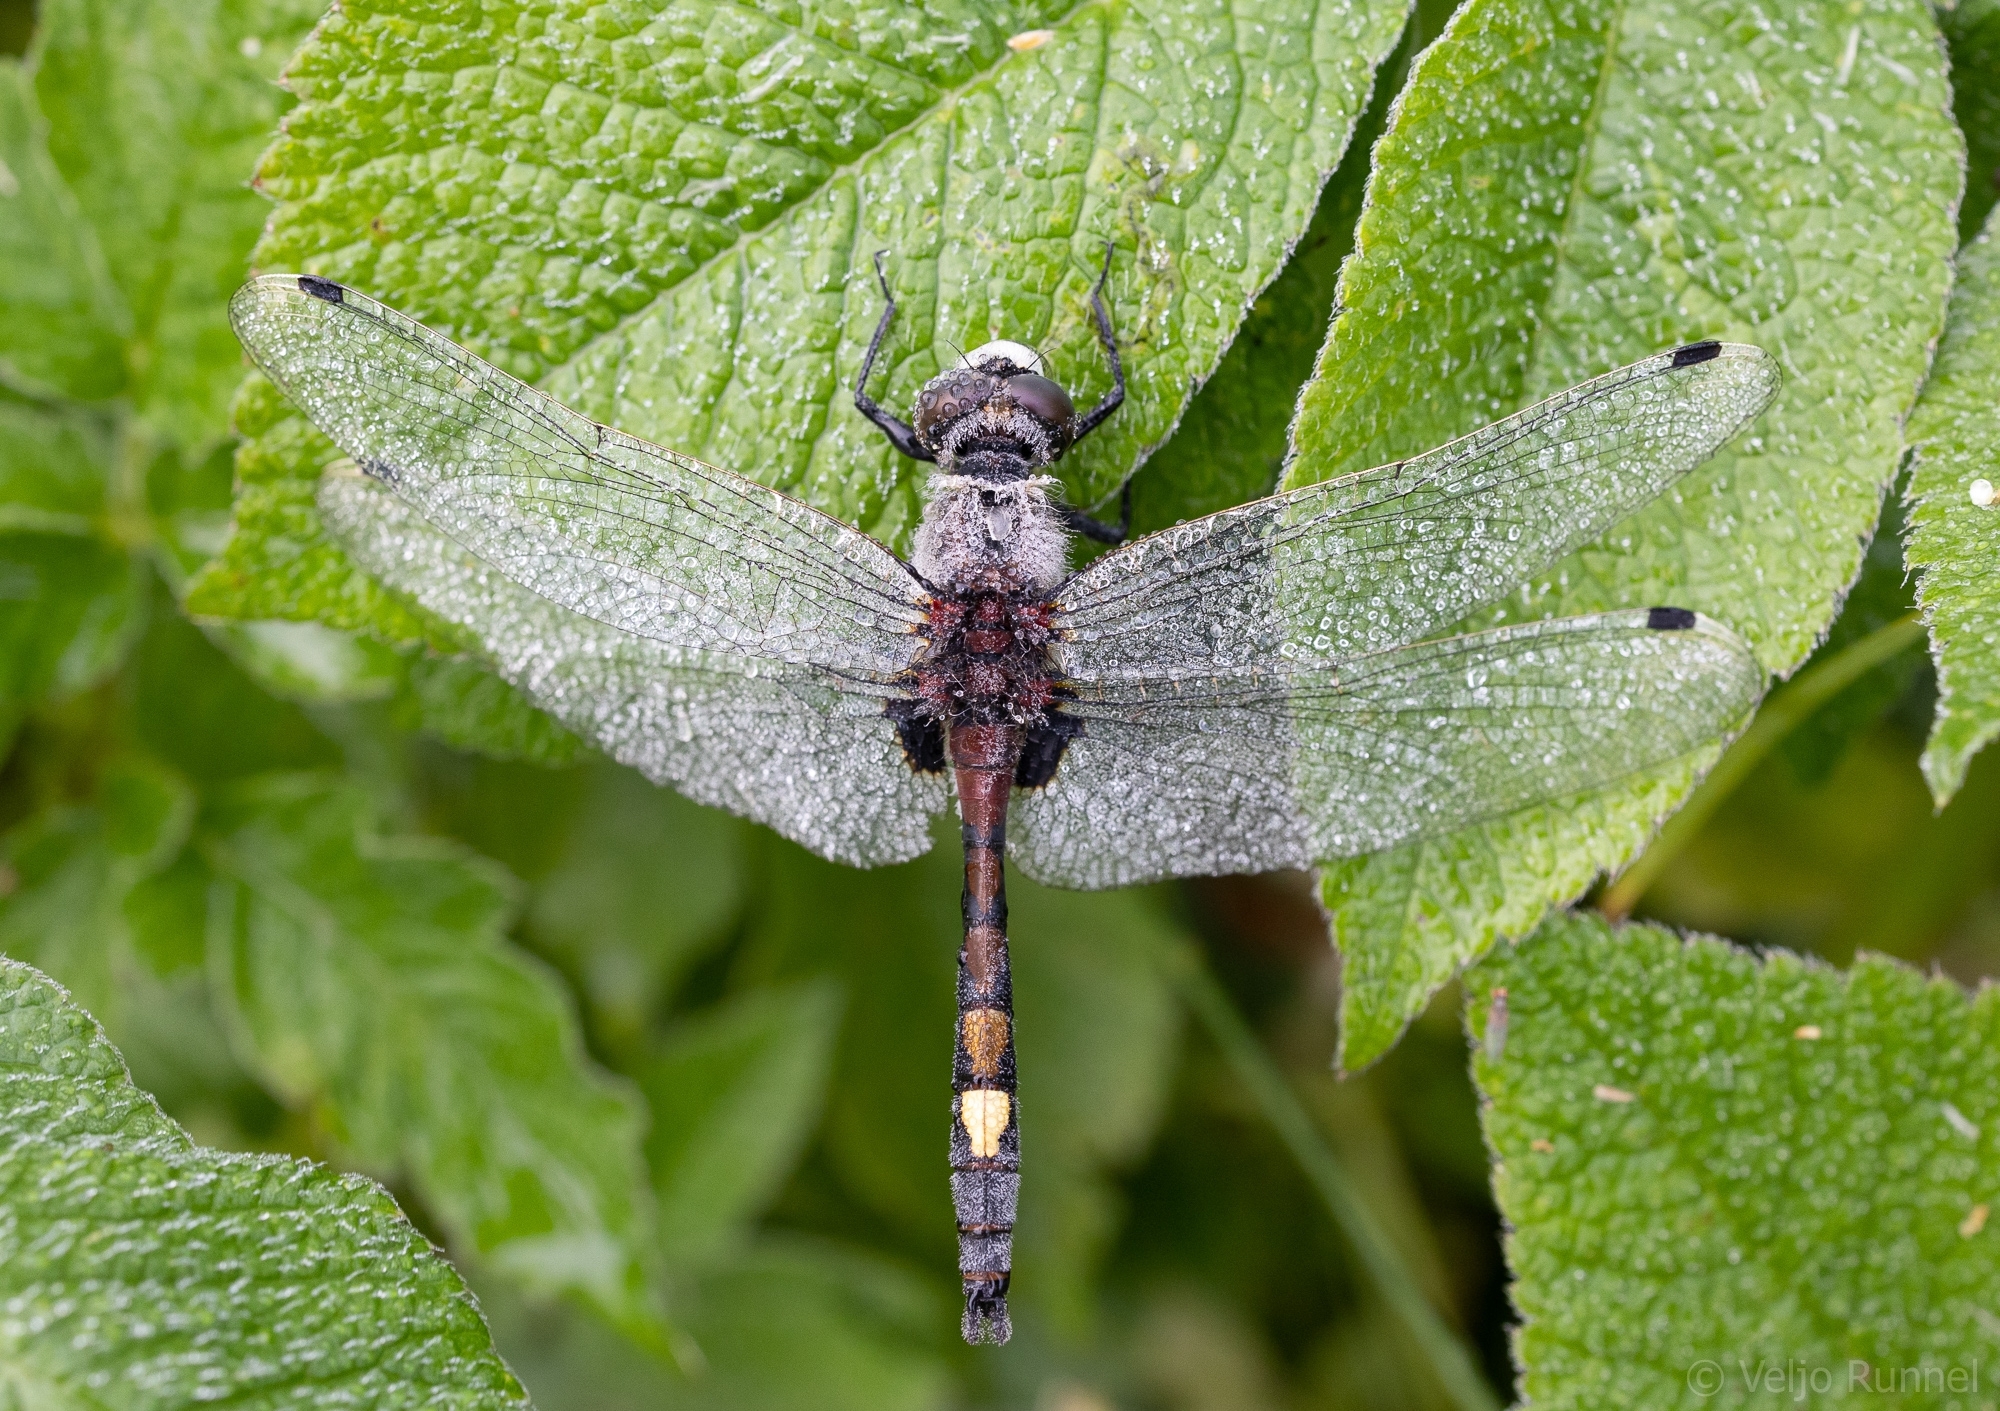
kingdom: Animalia
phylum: Arthropoda
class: Insecta
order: Odonata
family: Libellulidae
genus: Leucorrhinia
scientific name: Leucorrhinia pectoralis
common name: Yellow-spotted whiteface
